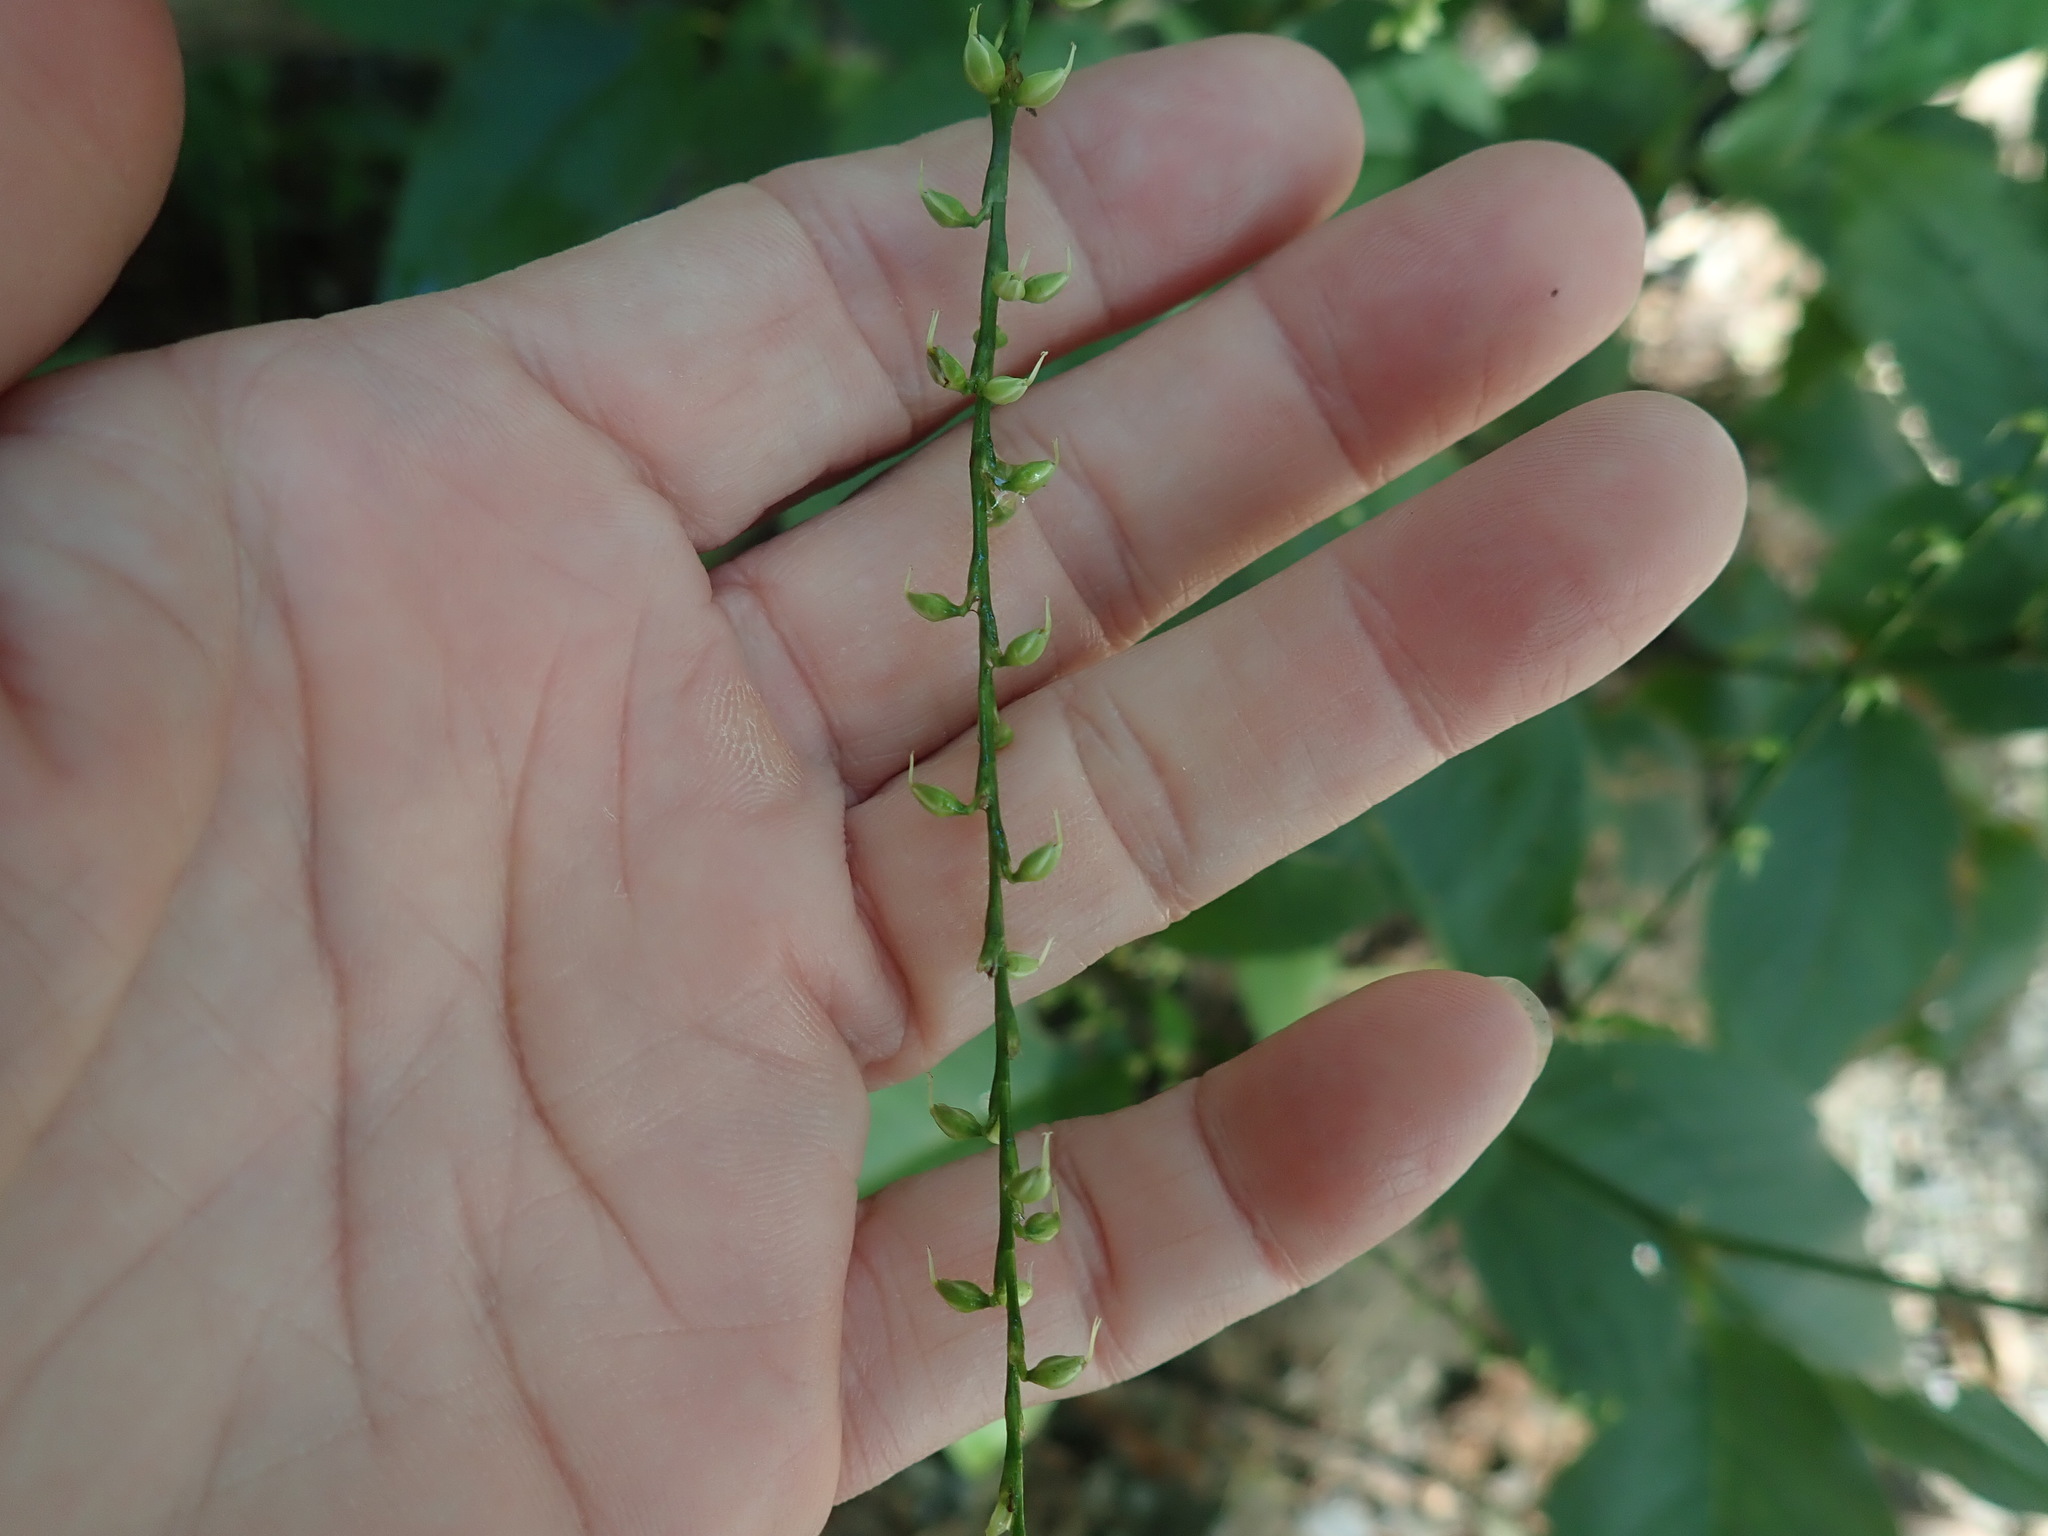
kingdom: Plantae
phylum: Tracheophyta
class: Magnoliopsida
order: Caryophyllales
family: Polygonaceae
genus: Persicaria
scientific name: Persicaria virginiana
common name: Jumpseed
